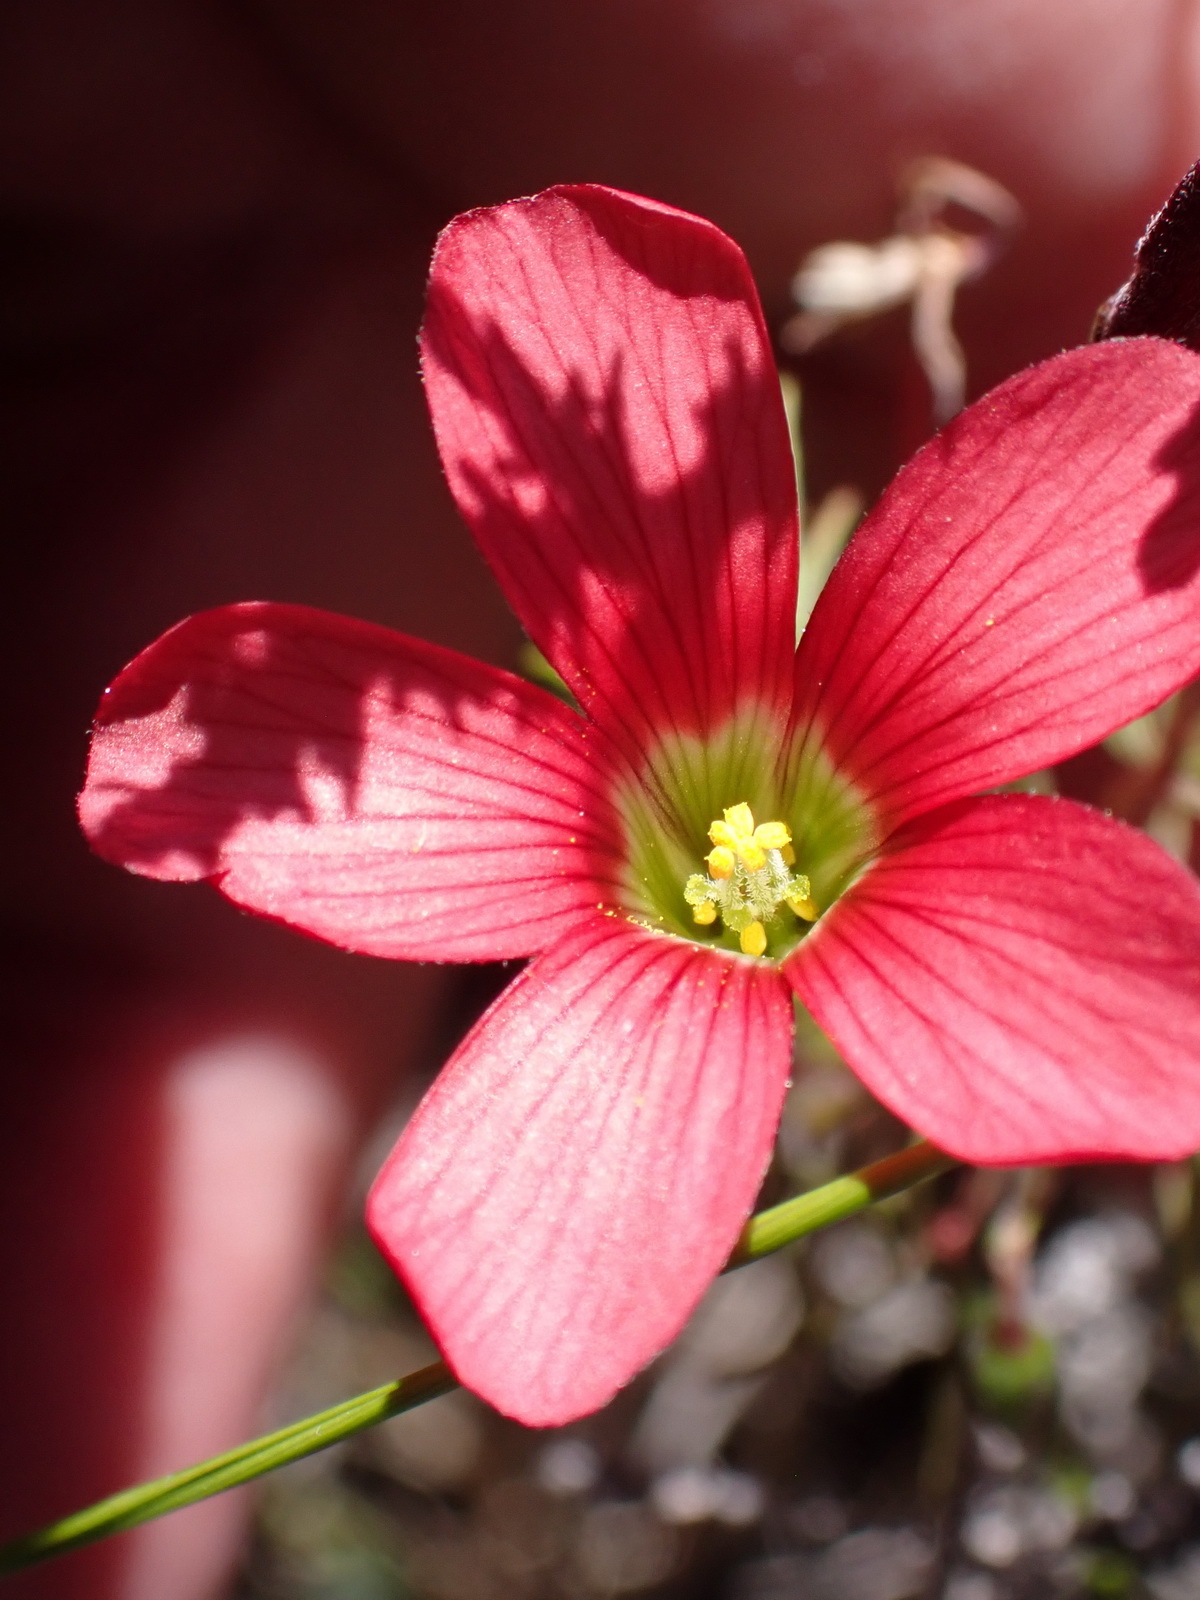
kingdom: Plantae
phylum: Tracheophyta
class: Magnoliopsida
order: Oxalidales
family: Oxalidaceae
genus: Oxalis
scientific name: Oxalis pendulifolia
